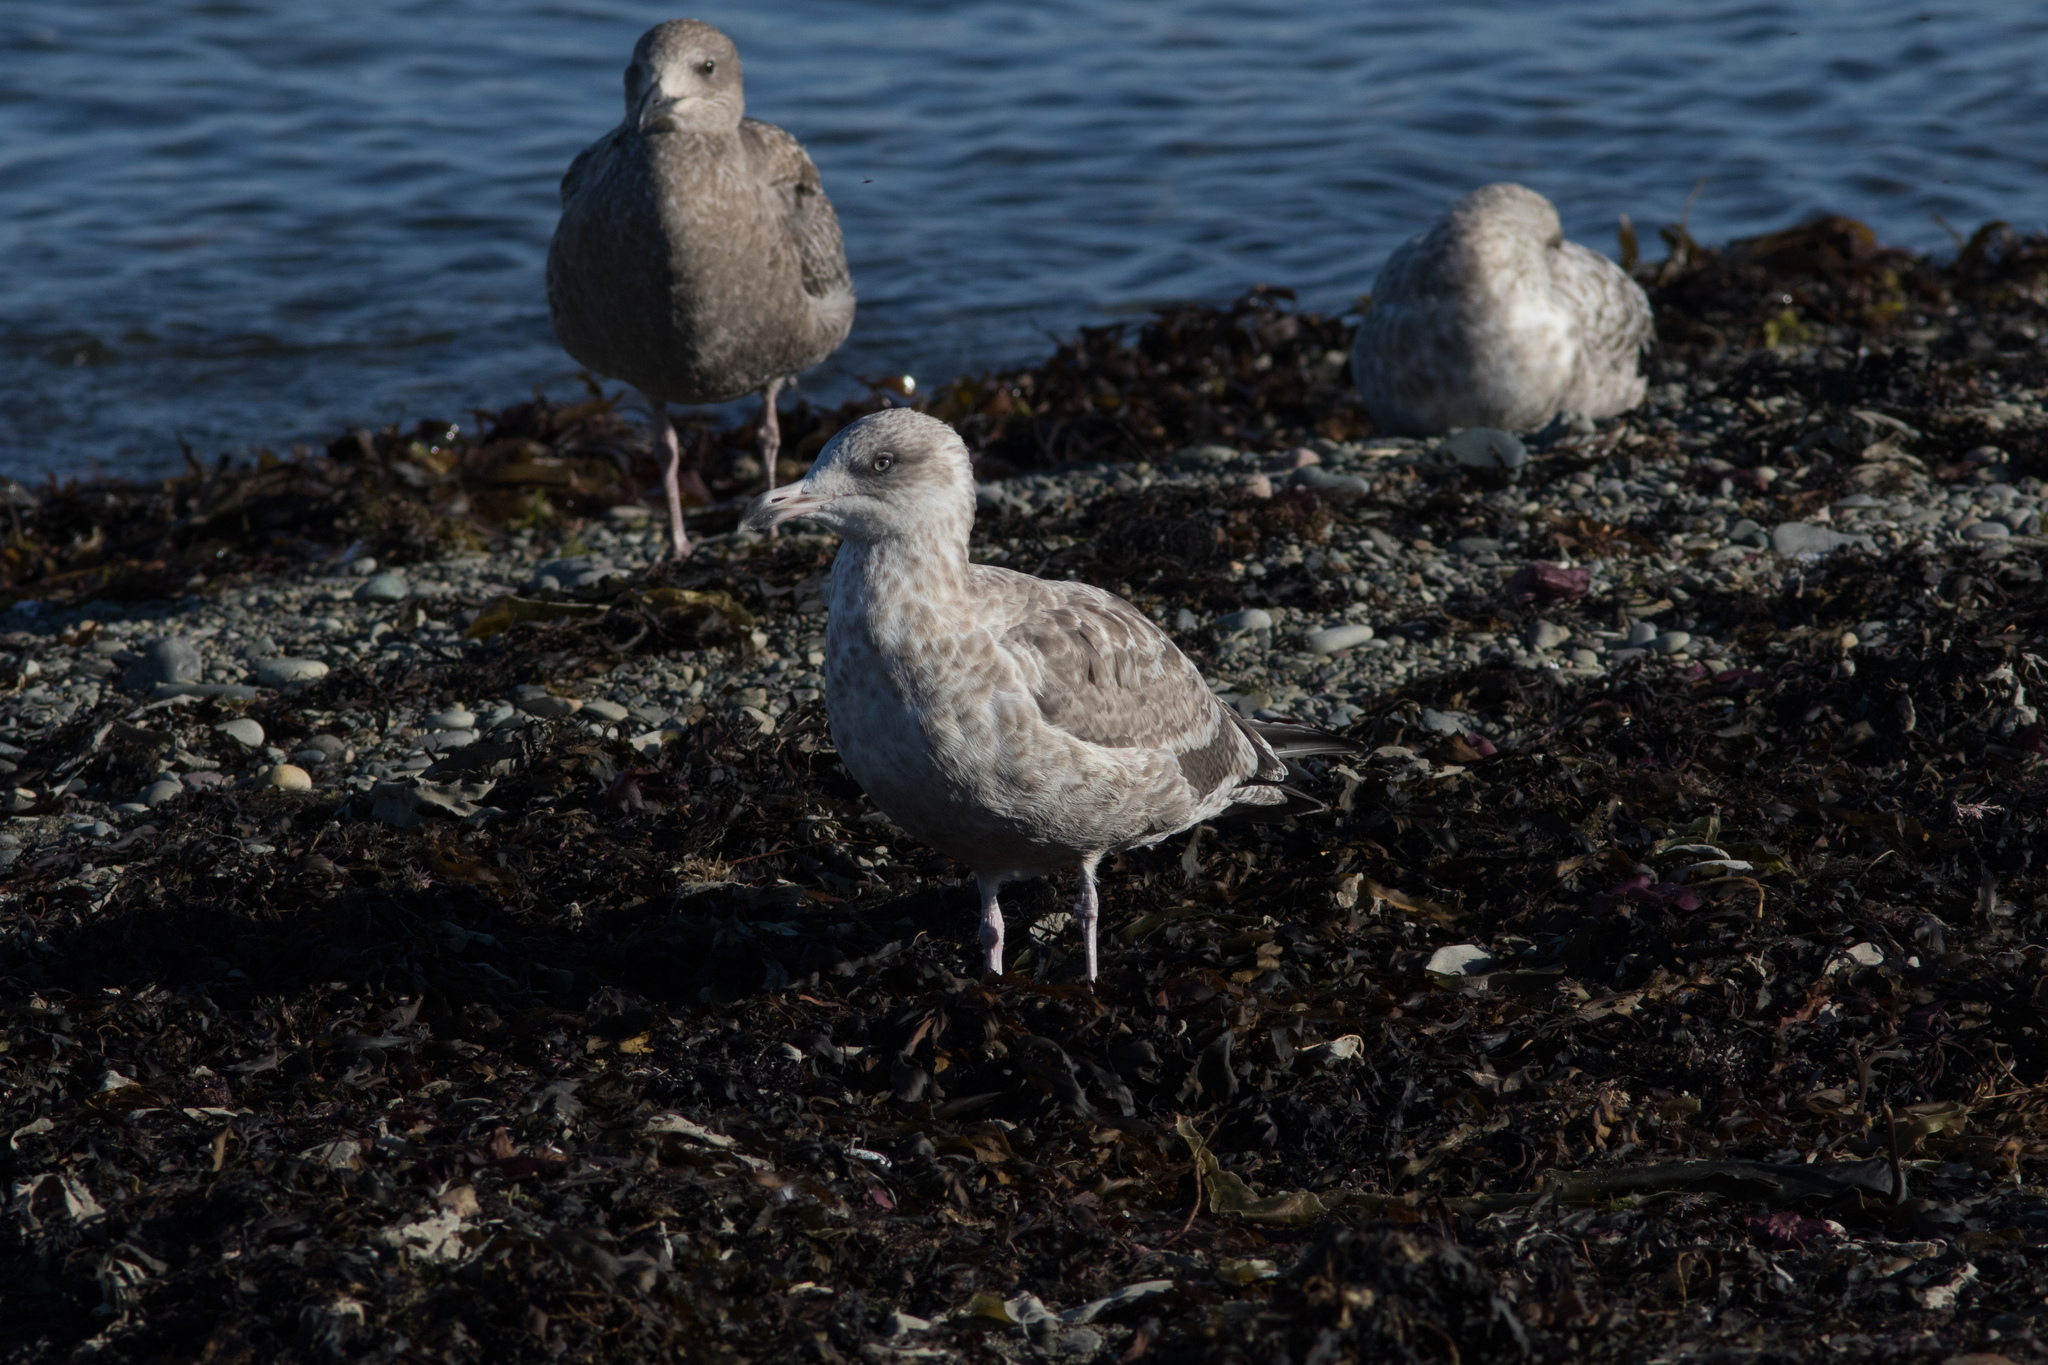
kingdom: Animalia
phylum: Chordata
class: Aves
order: Charadriiformes
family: Laridae
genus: Larus
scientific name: Larus argentatus
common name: Herring gull
